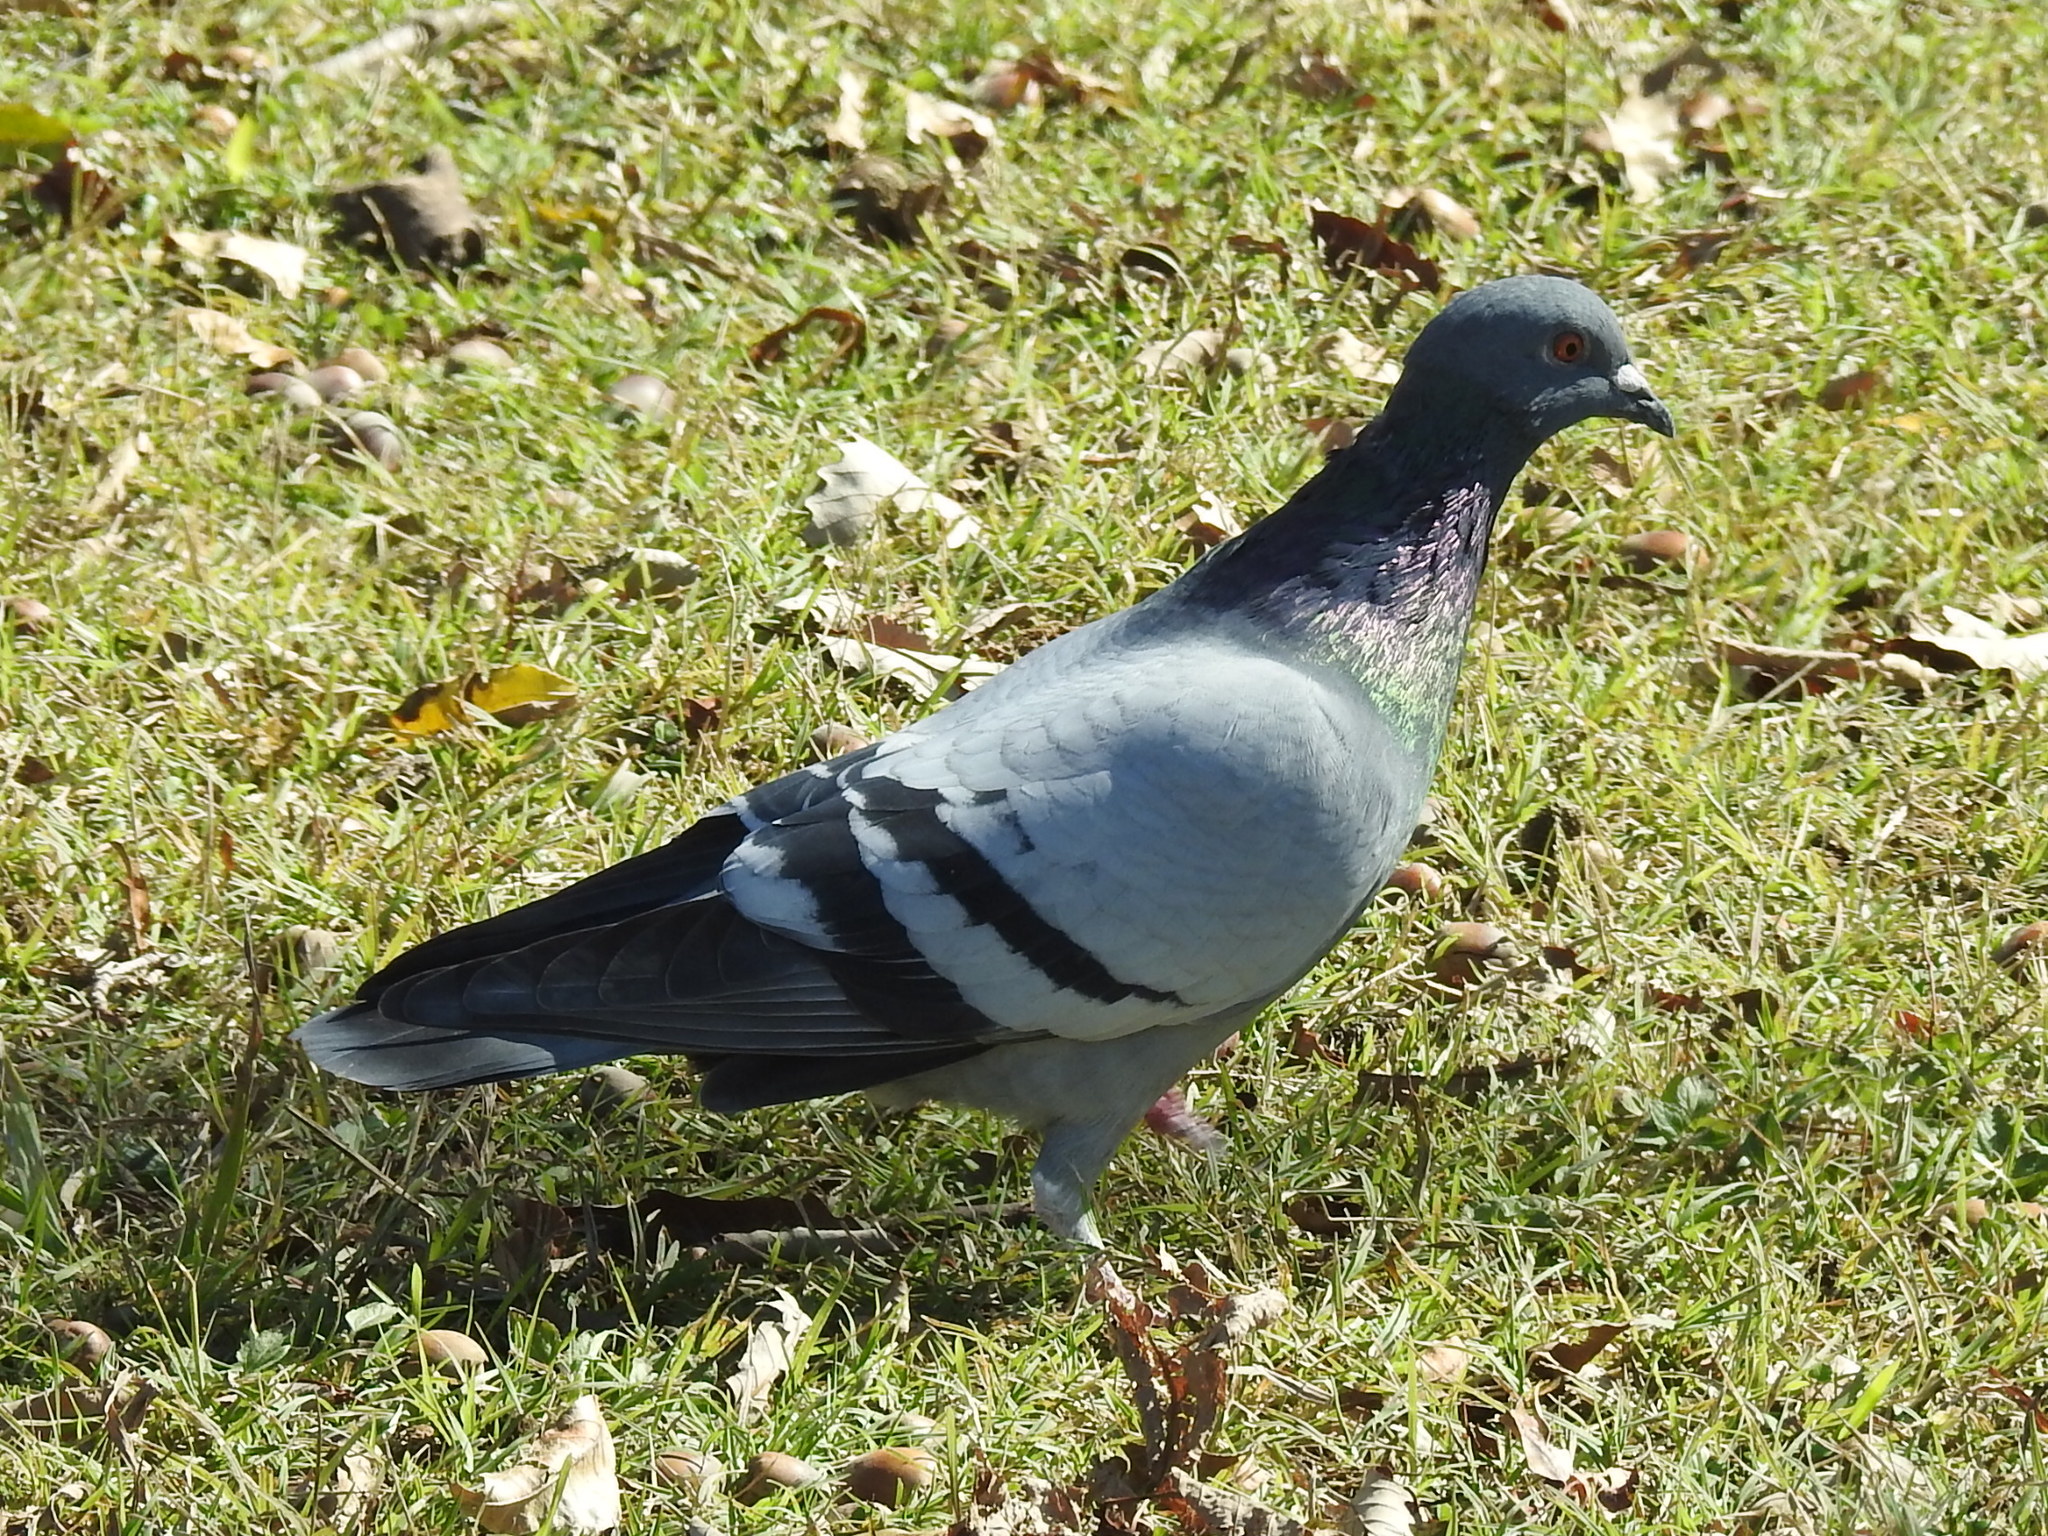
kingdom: Animalia
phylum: Chordata
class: Aves
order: Columbiformes
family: Columbidae
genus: Columba
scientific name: Columba livia
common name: Rock pigeon
